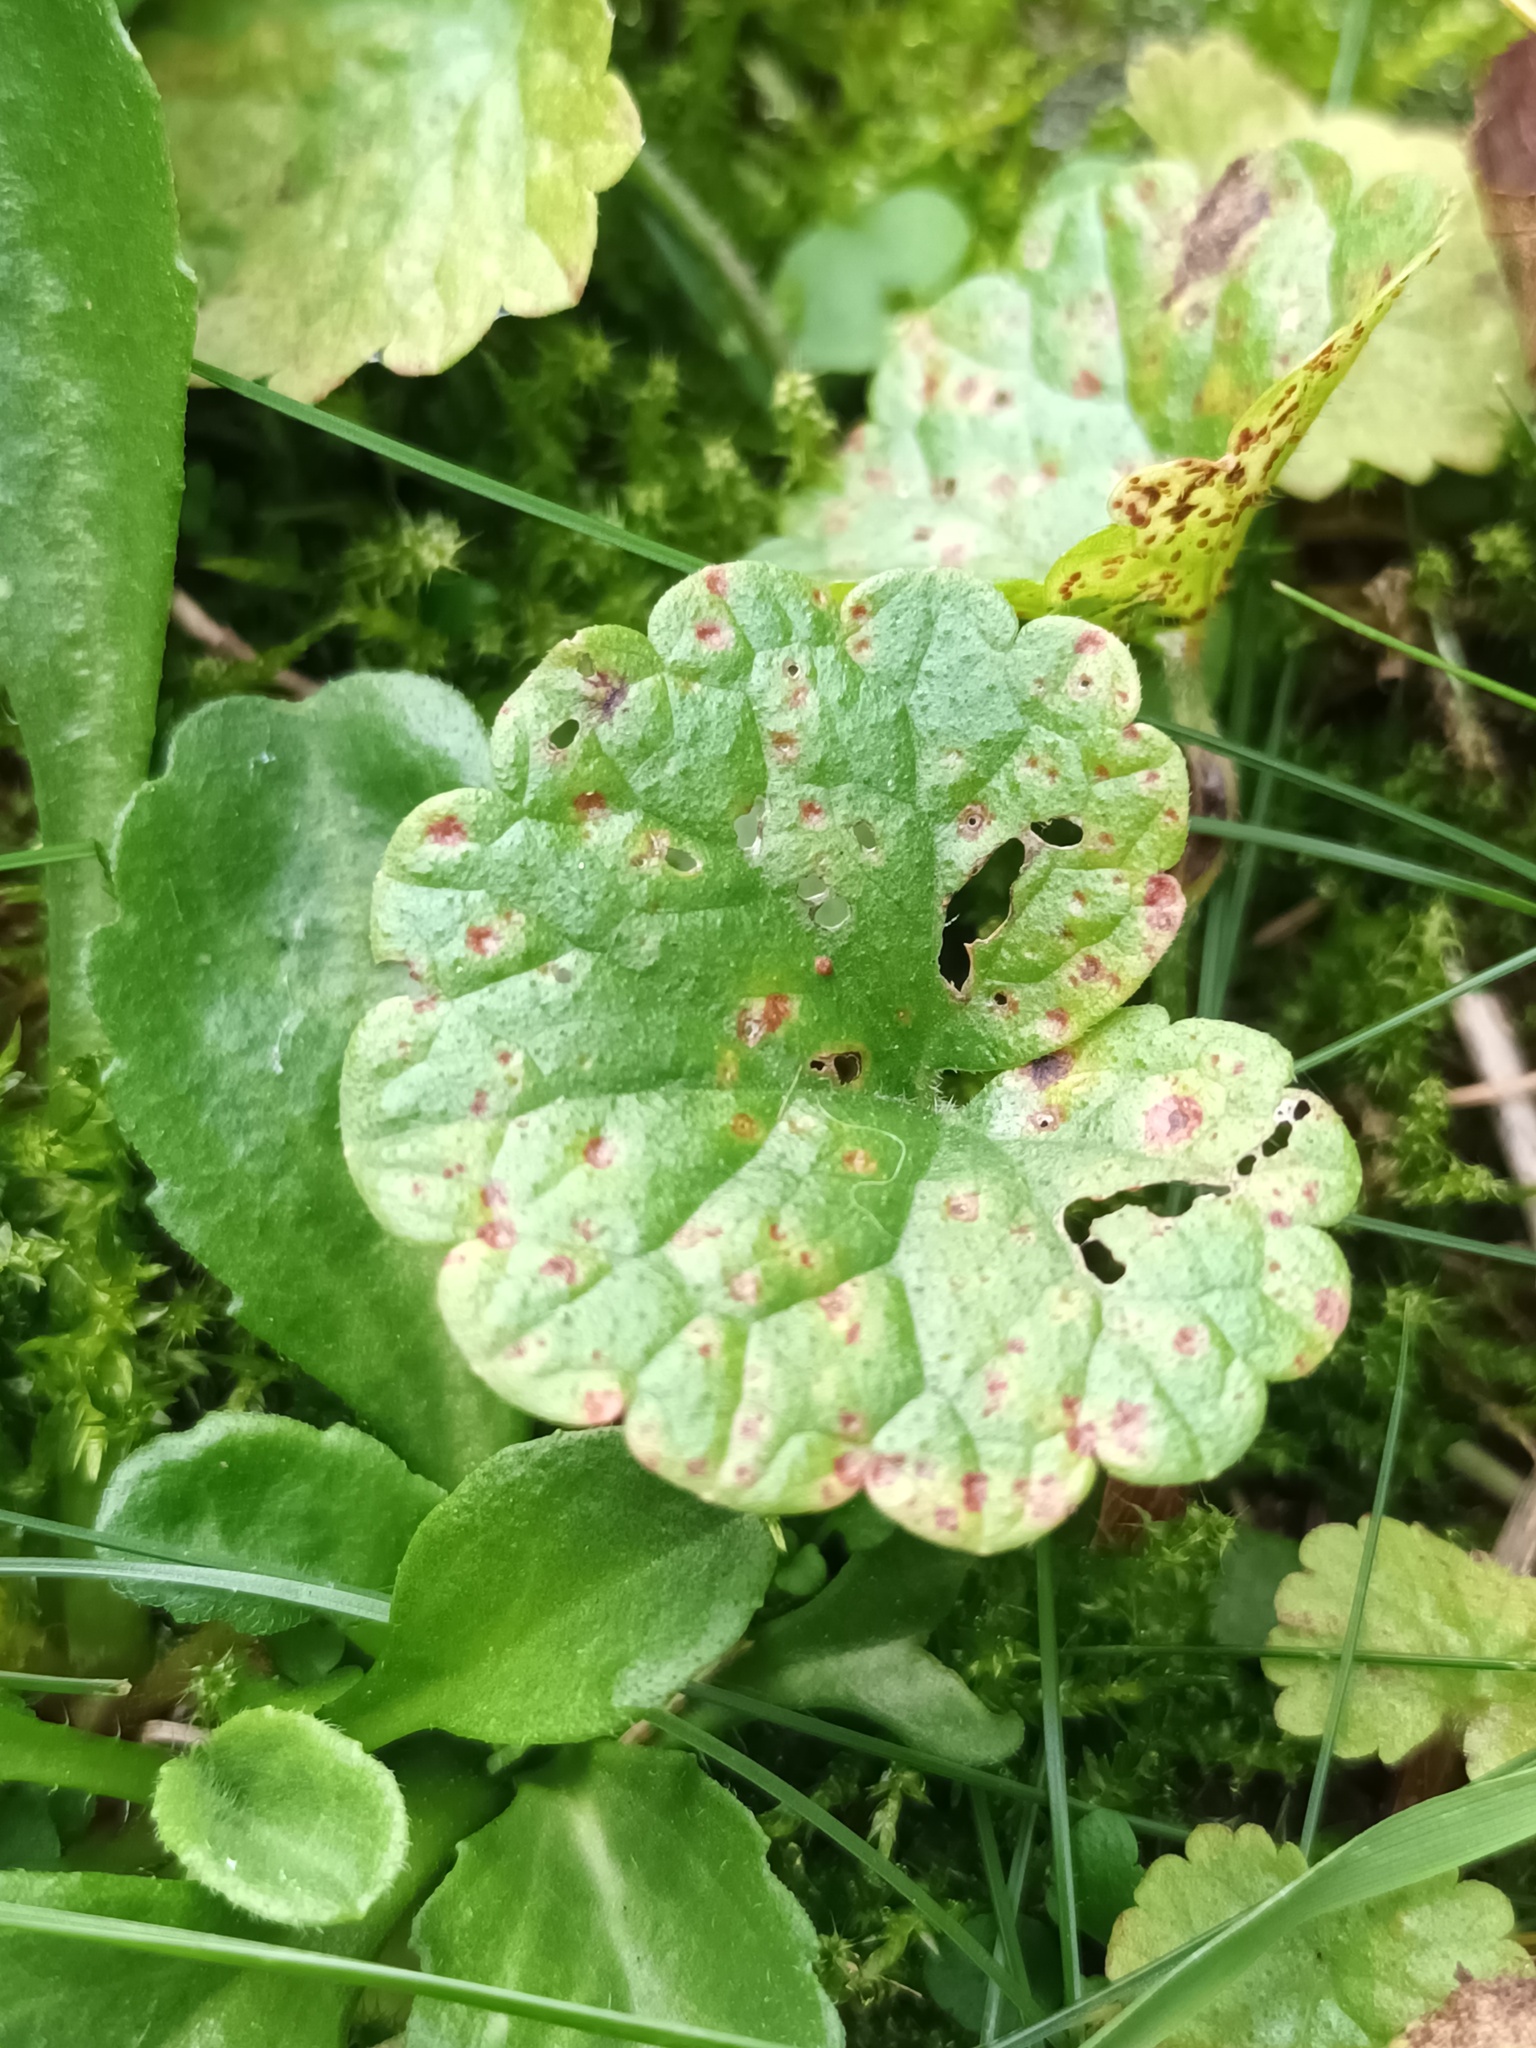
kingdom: Fungi
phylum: Basidiomycota
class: Pucciniomycetes
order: Pucciniales
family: Pucciniaceae
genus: Puccinia
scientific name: Puccinia glechomatis
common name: Ground ivy rust
